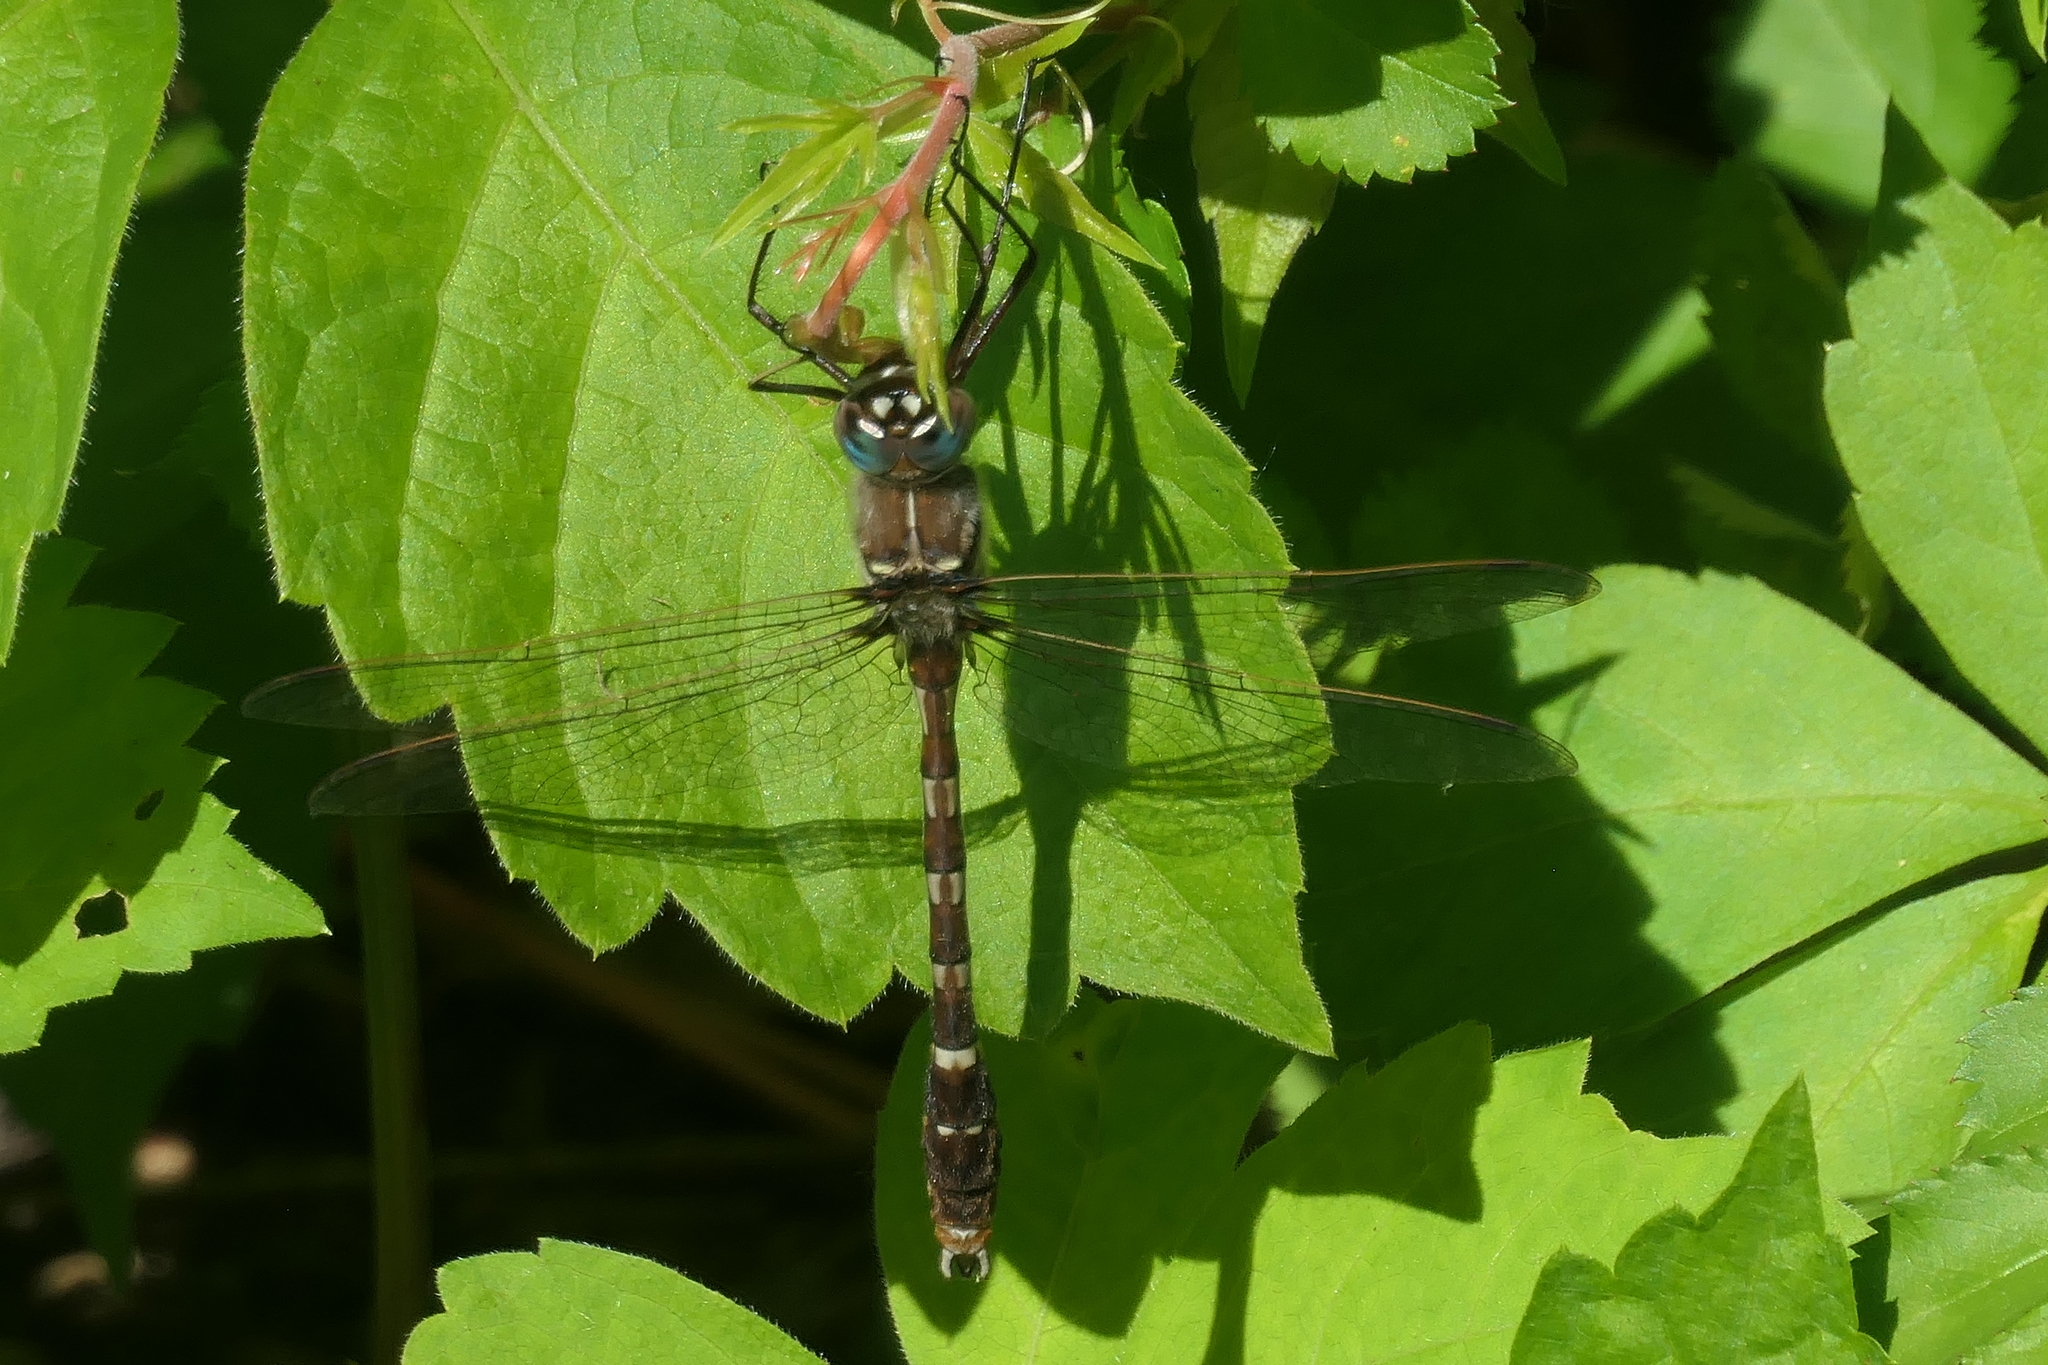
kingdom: Animalia
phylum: Arthropoda
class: Insecta
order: Odonata
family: Macromiidae
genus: Didymops
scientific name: Didymops transversa
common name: Stream cruiser
